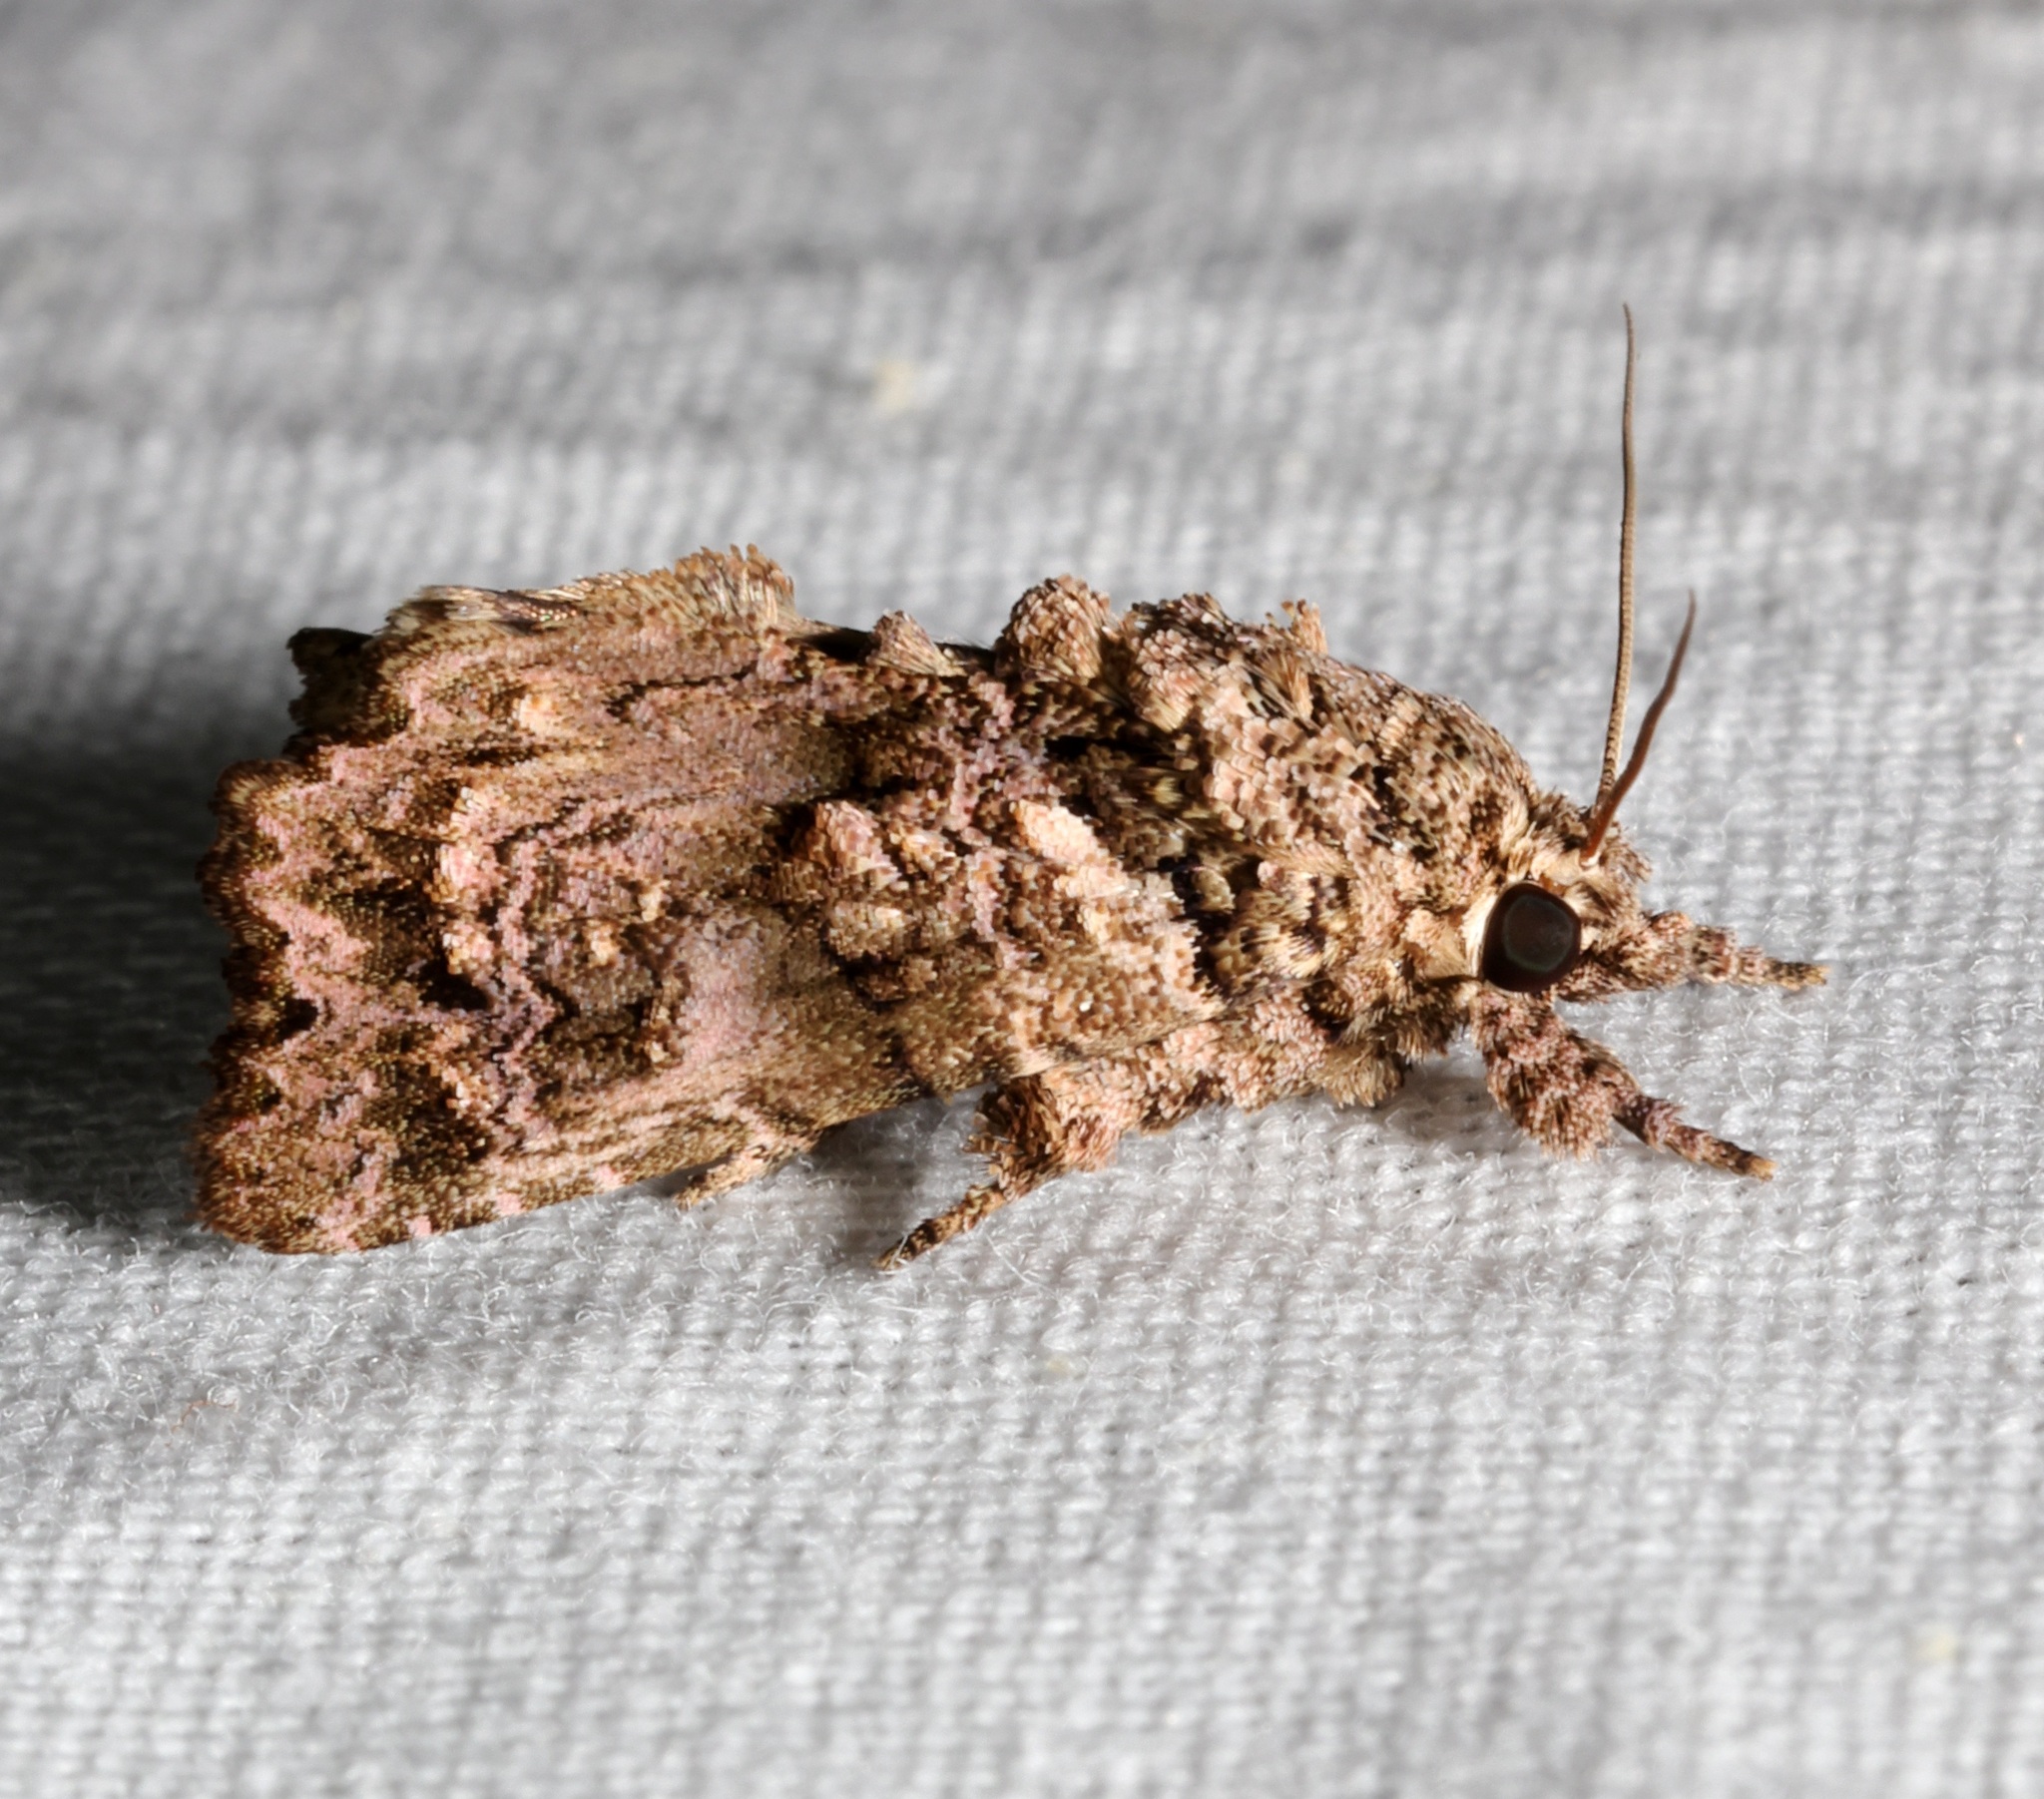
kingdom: Animalia
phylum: Arthropoda
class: Insecta
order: Lepidoptera
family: Noctuidae
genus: Callopistria
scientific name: Callopistria guttulalis
